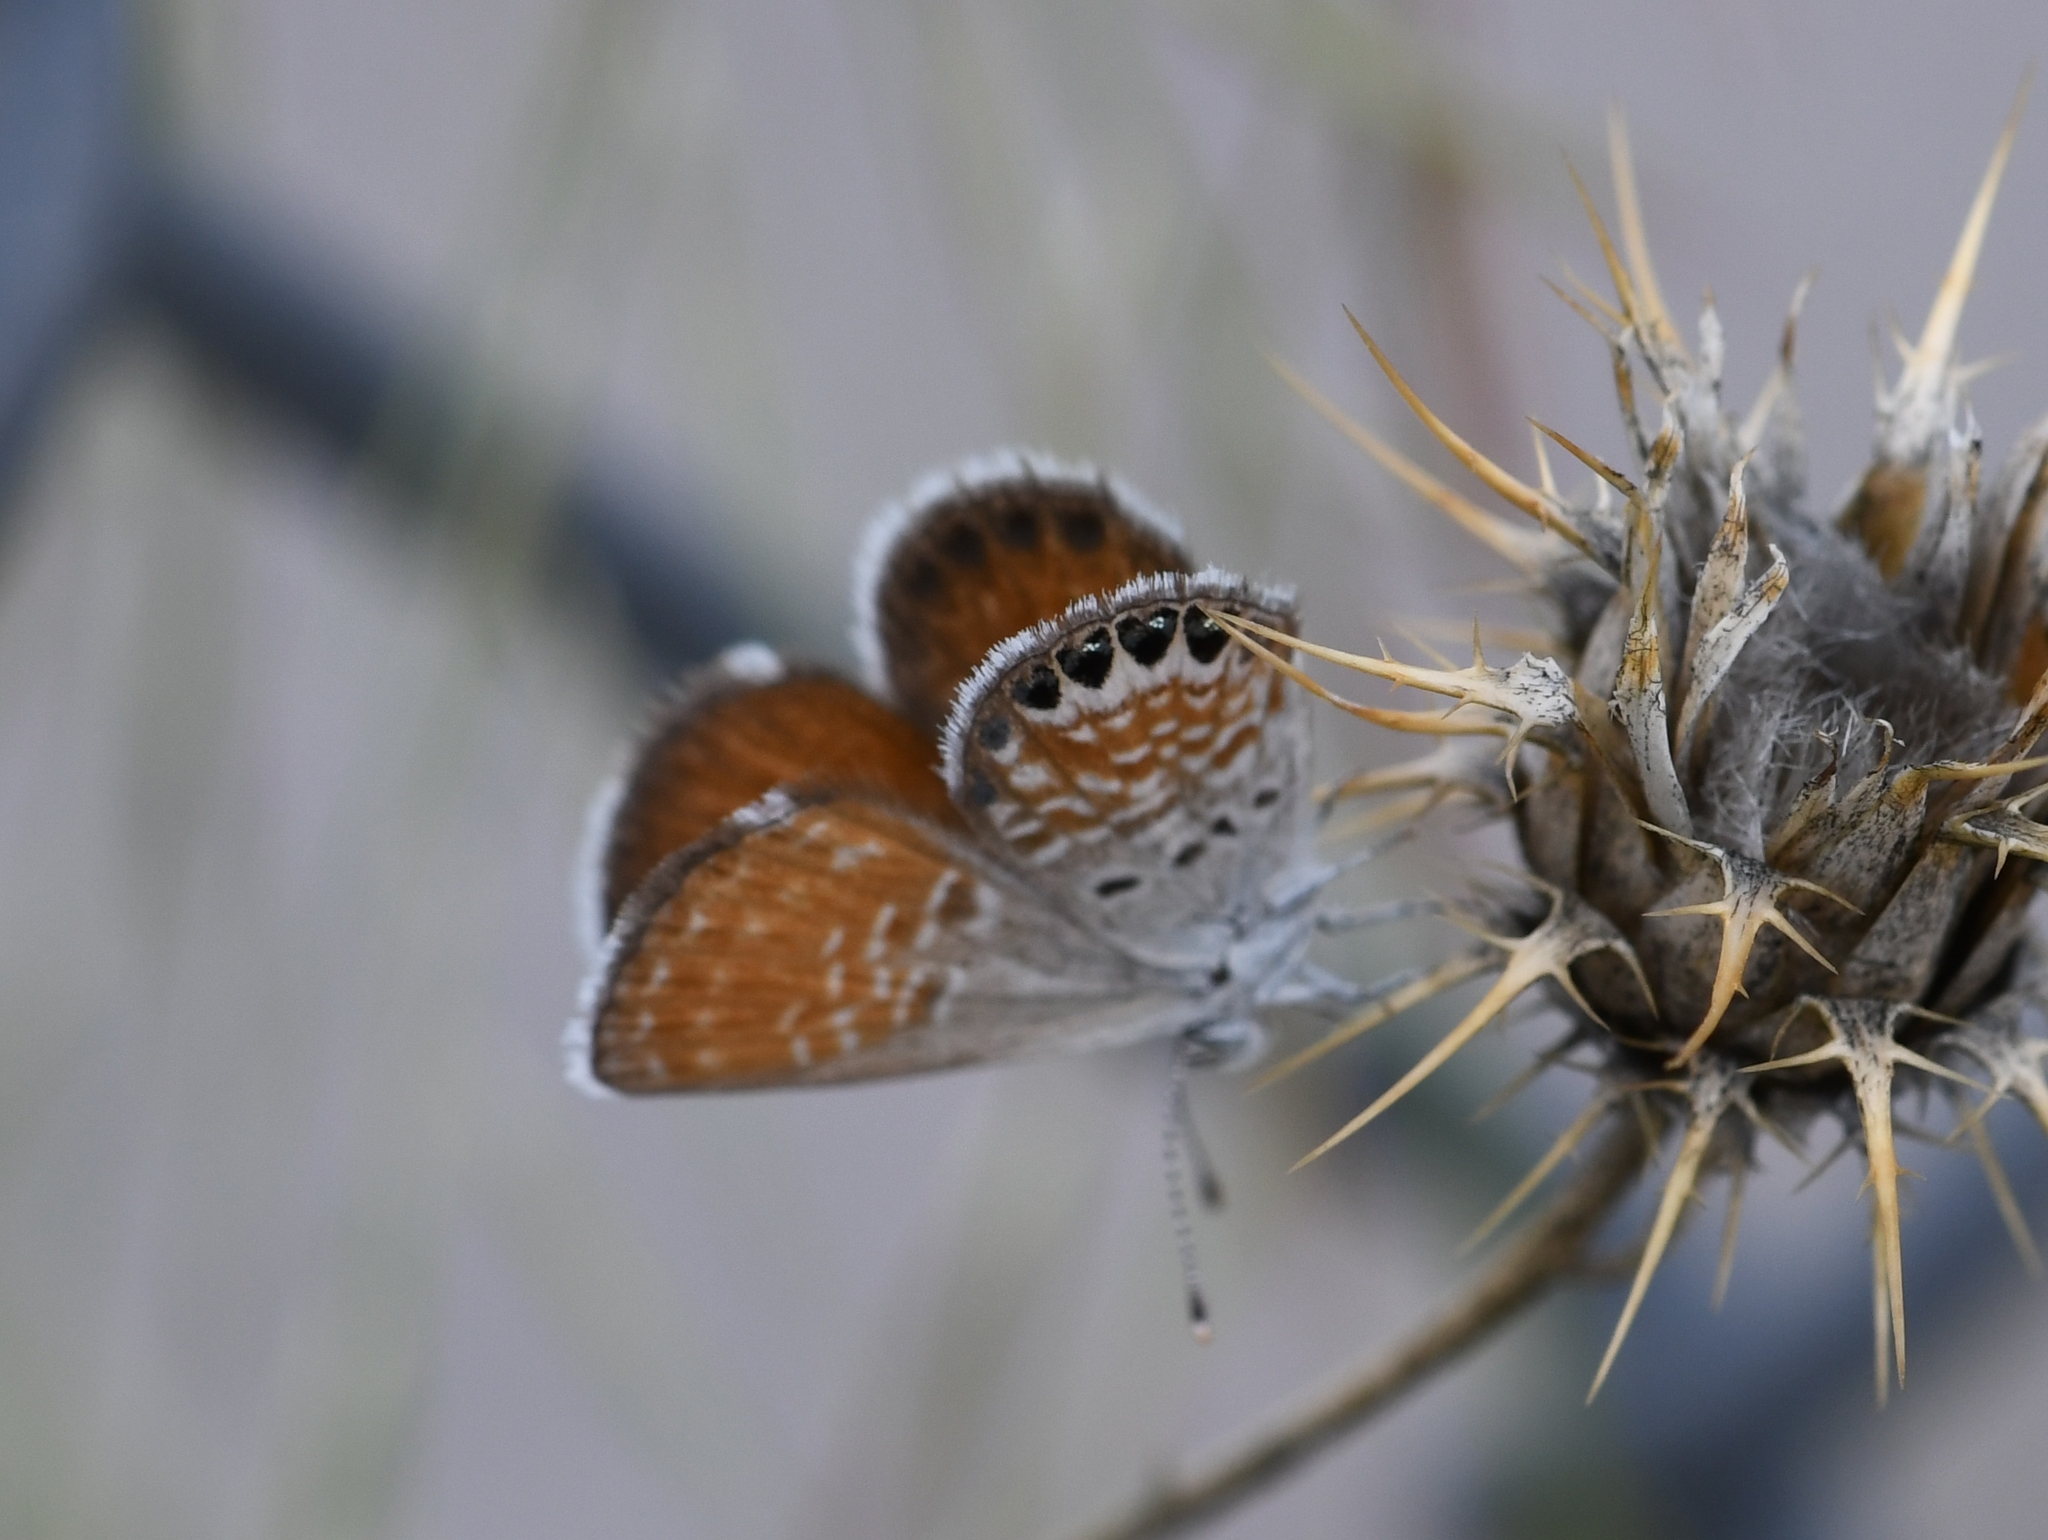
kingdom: Animalia
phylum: Arthropoda
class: Insecta
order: Lepidoptera
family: Lycaenidae
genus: Brephidium
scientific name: Brephidium exilis
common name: Pygmy blue
